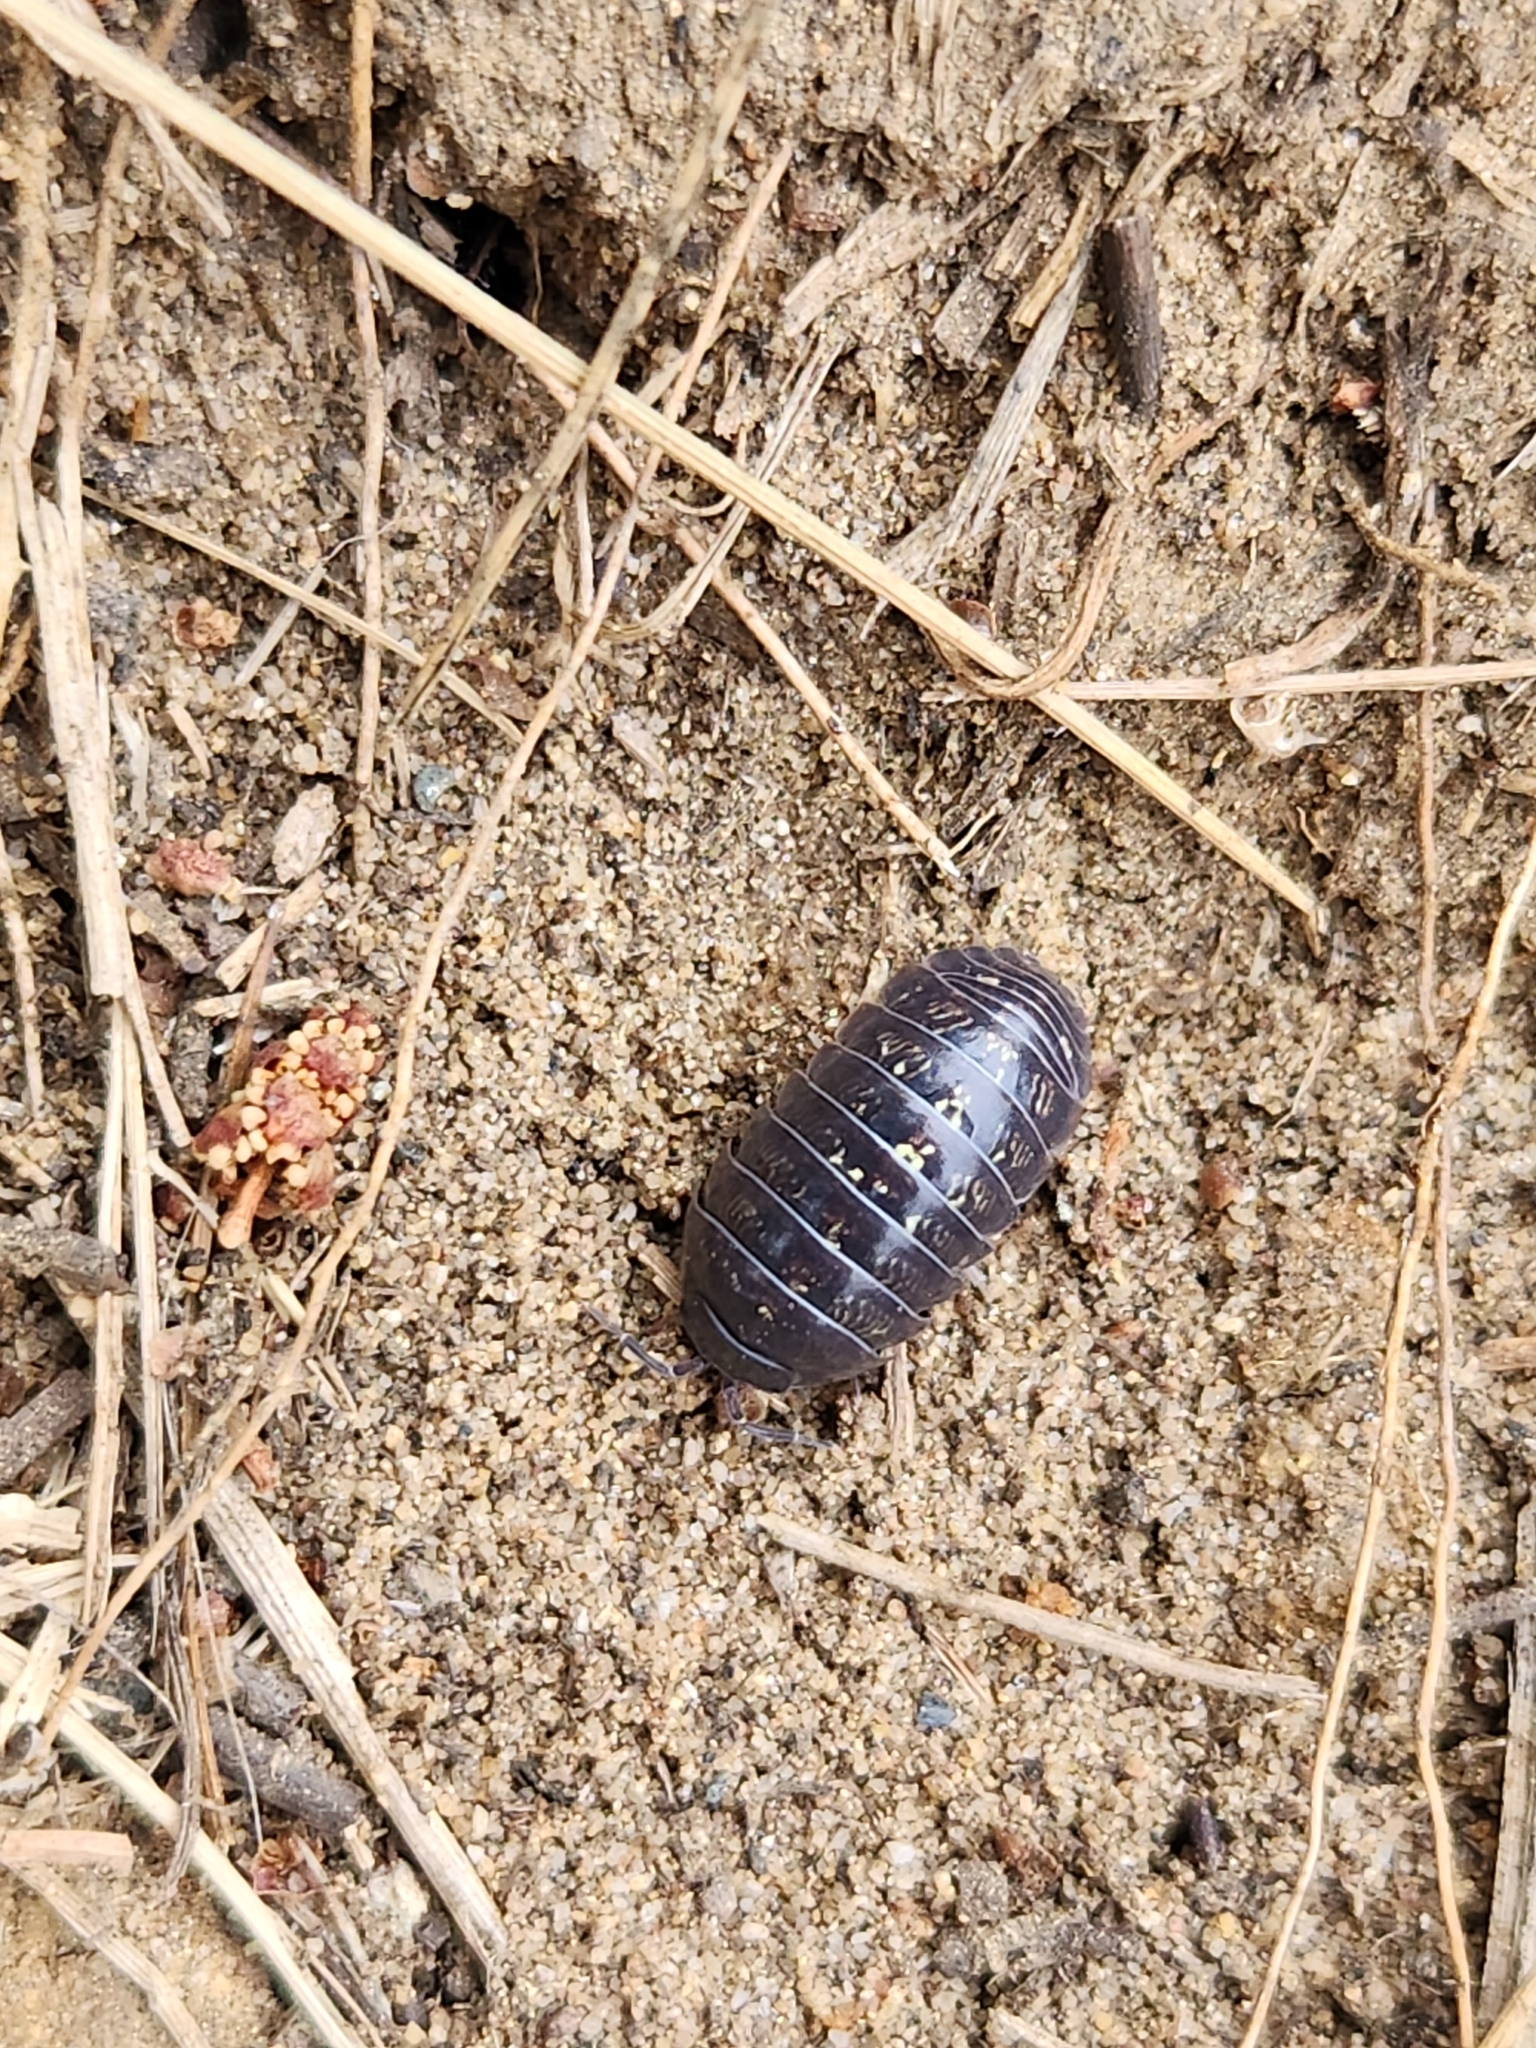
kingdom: Animalia
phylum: Arthropoda
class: Malacostraca
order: Isopoda
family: Armadillidiidae
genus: Armadillidium
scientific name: Armadillidium vulgare
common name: Common pill woodlouse
